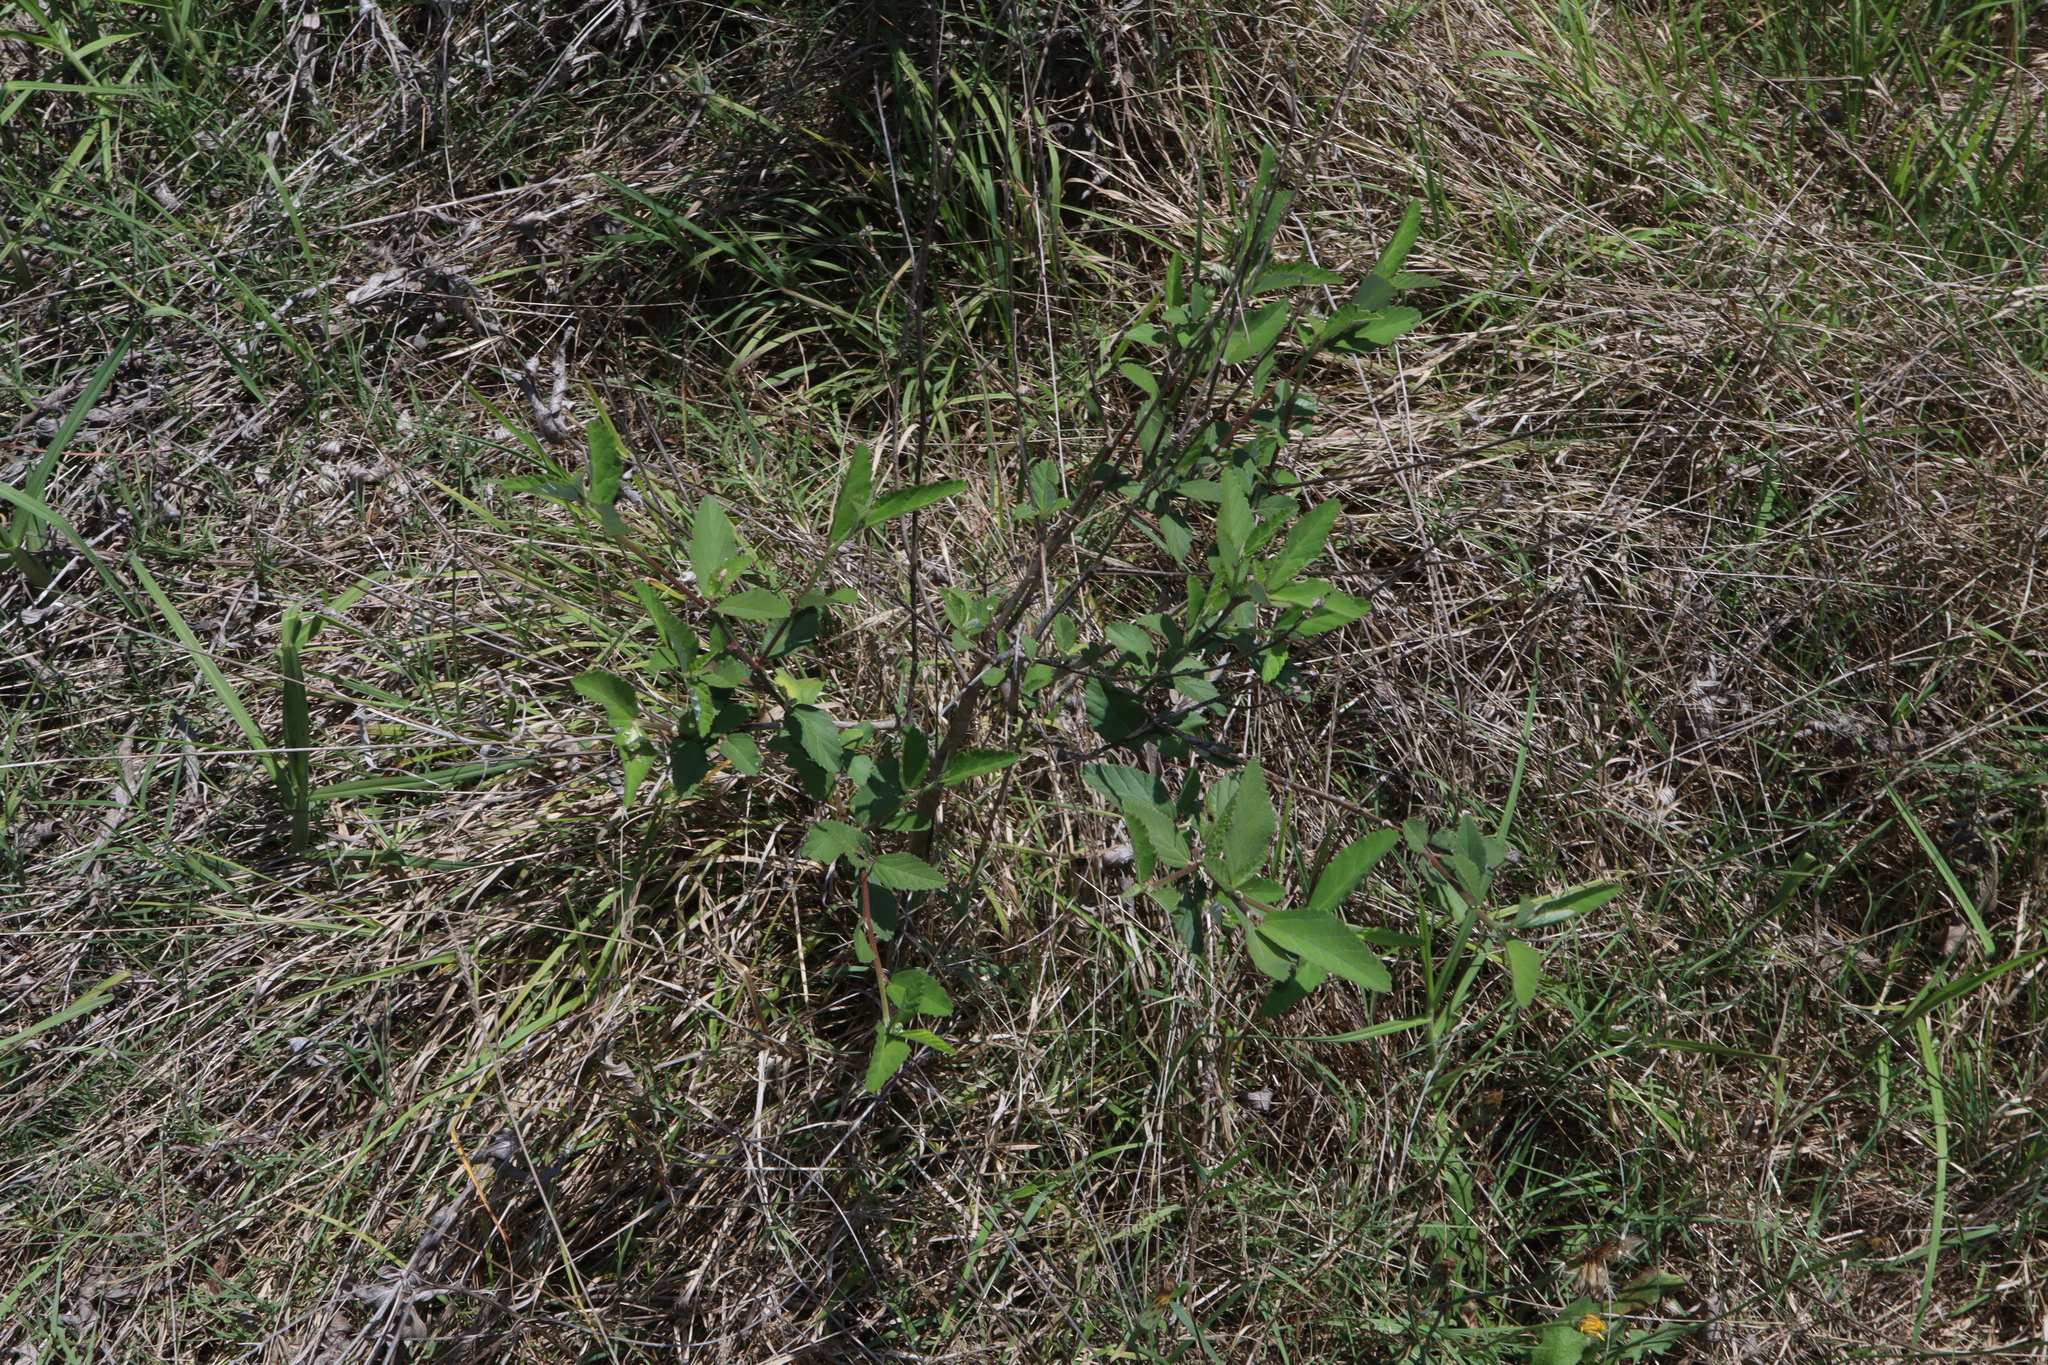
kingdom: Plantae
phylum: Tracheophyta
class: Magnoliopsida
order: Malvales
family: Malvaceae
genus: Sida
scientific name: Sida rhombifolia
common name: Queensland-hemp
